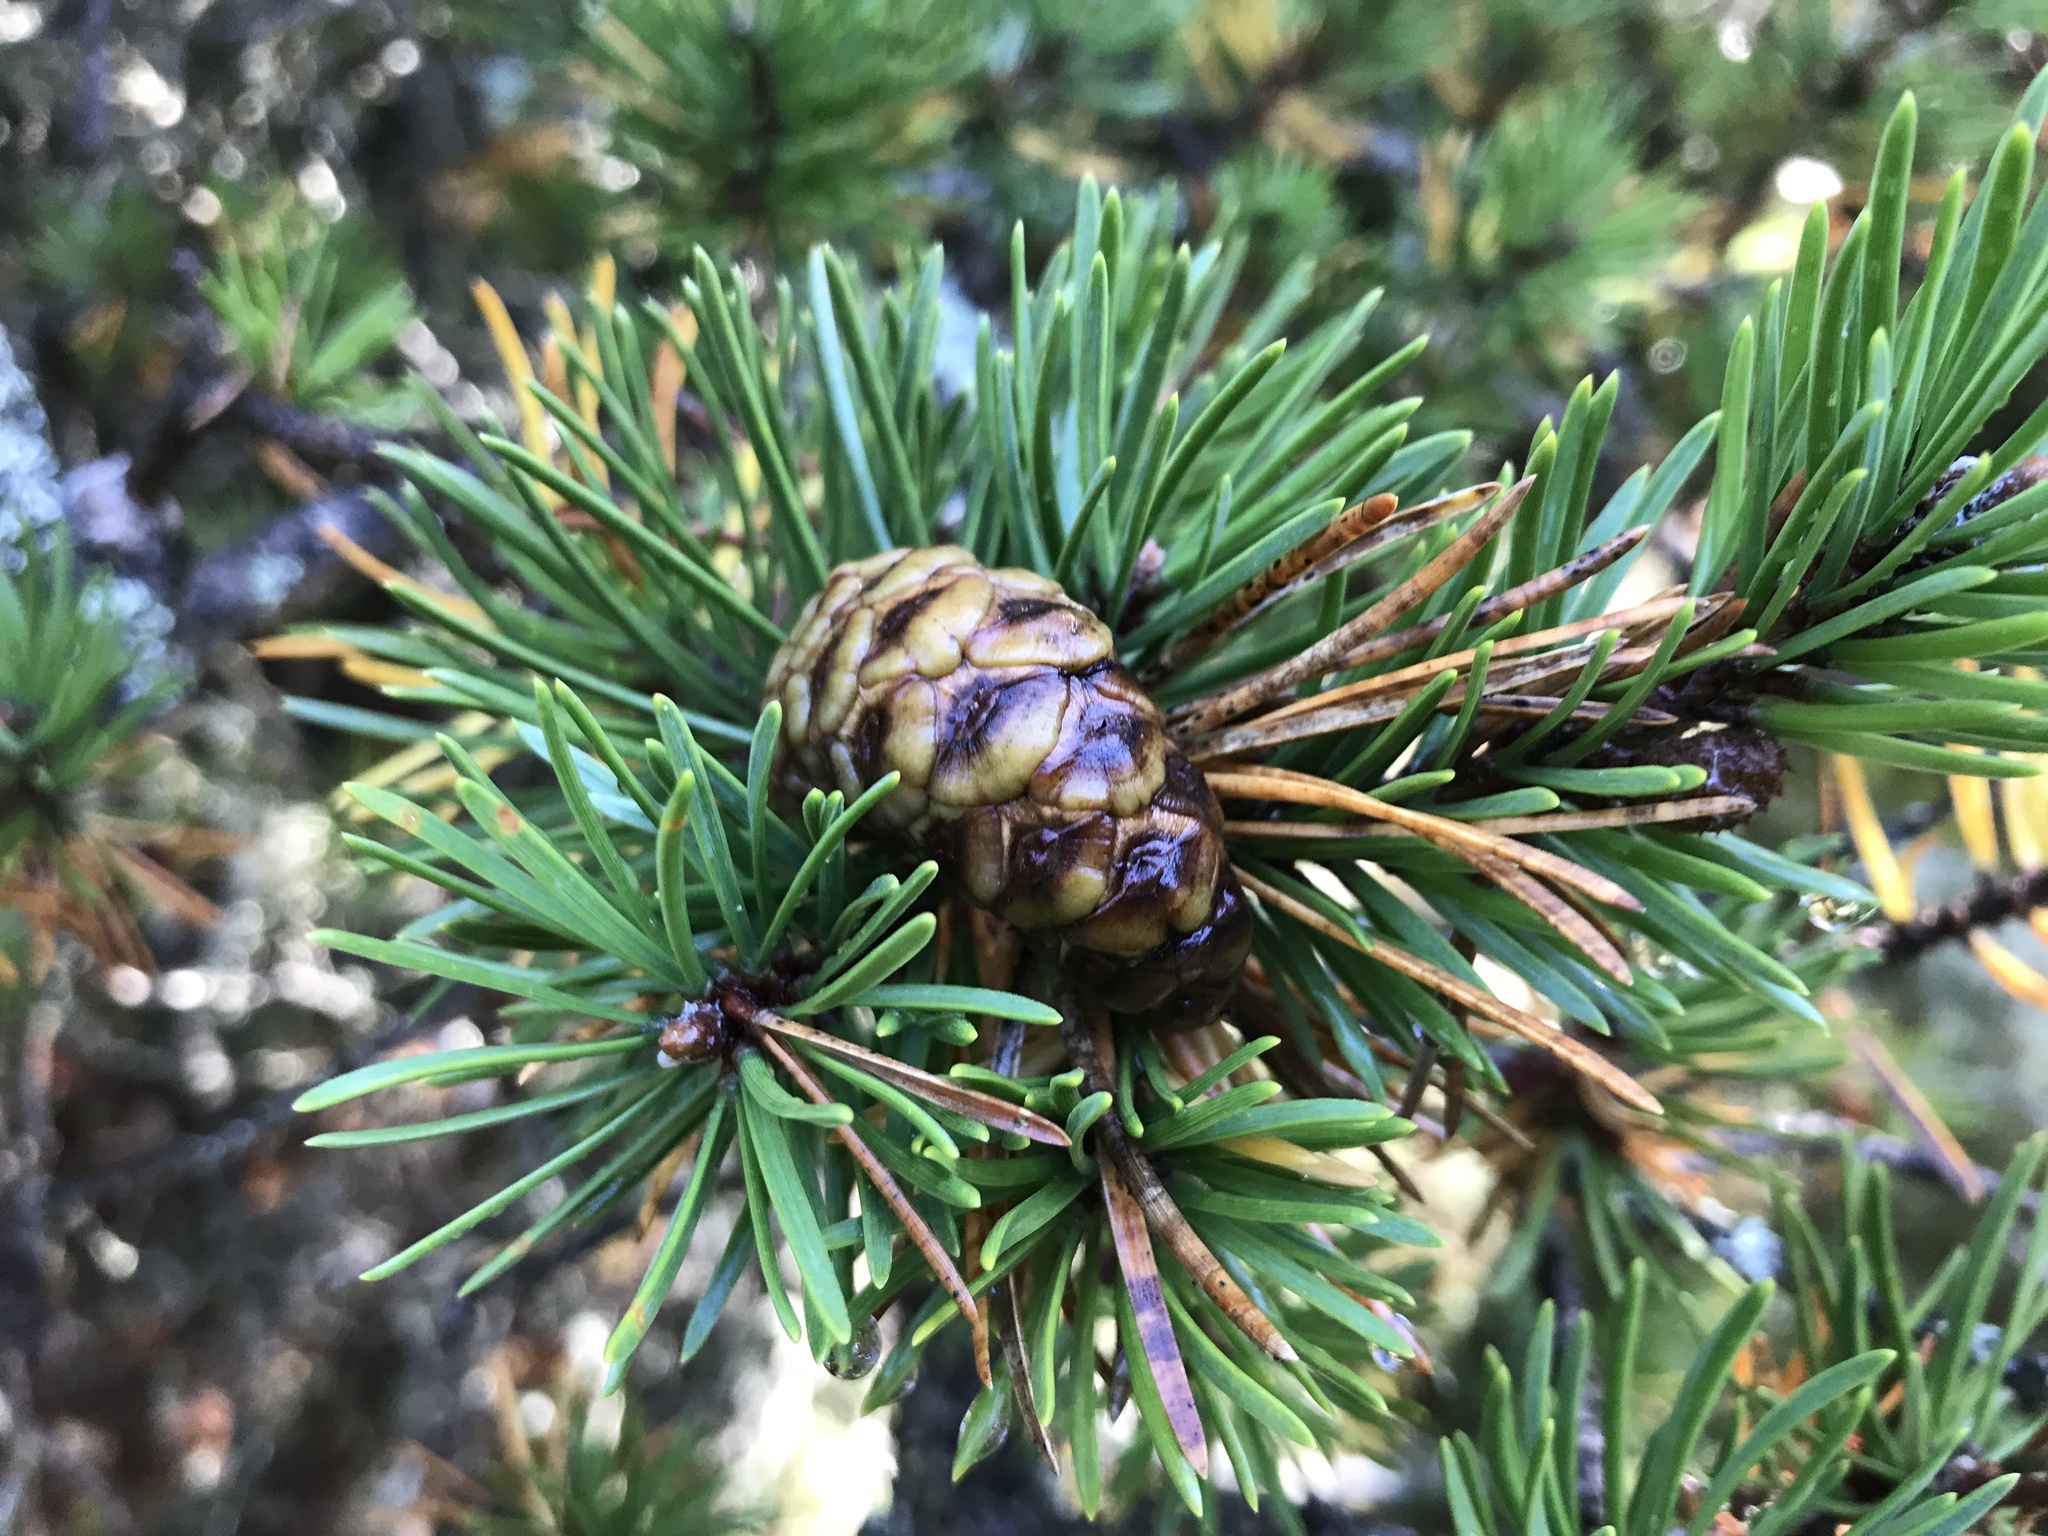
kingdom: Plantae
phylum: Tracheophyta
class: Pinopsida
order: Pinales
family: Pinaceae
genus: Pinus
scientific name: Pinus banksiana
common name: Jack pine
